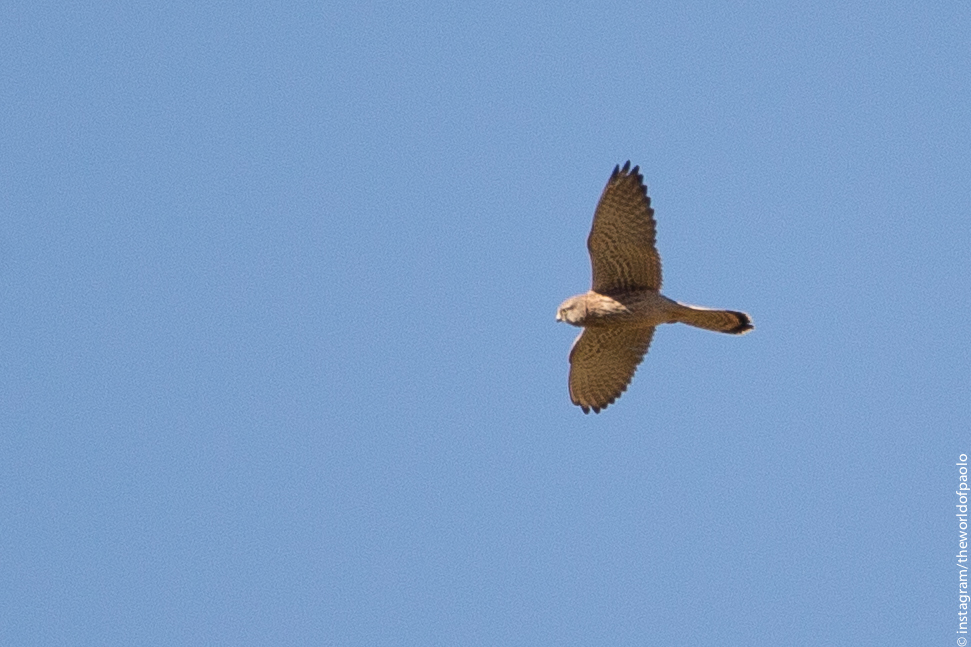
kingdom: Animalia
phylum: Chordata
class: Aves
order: Falconiformes
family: Falconidae
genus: Falco
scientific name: Falco tinnunculus
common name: Common kestrel
